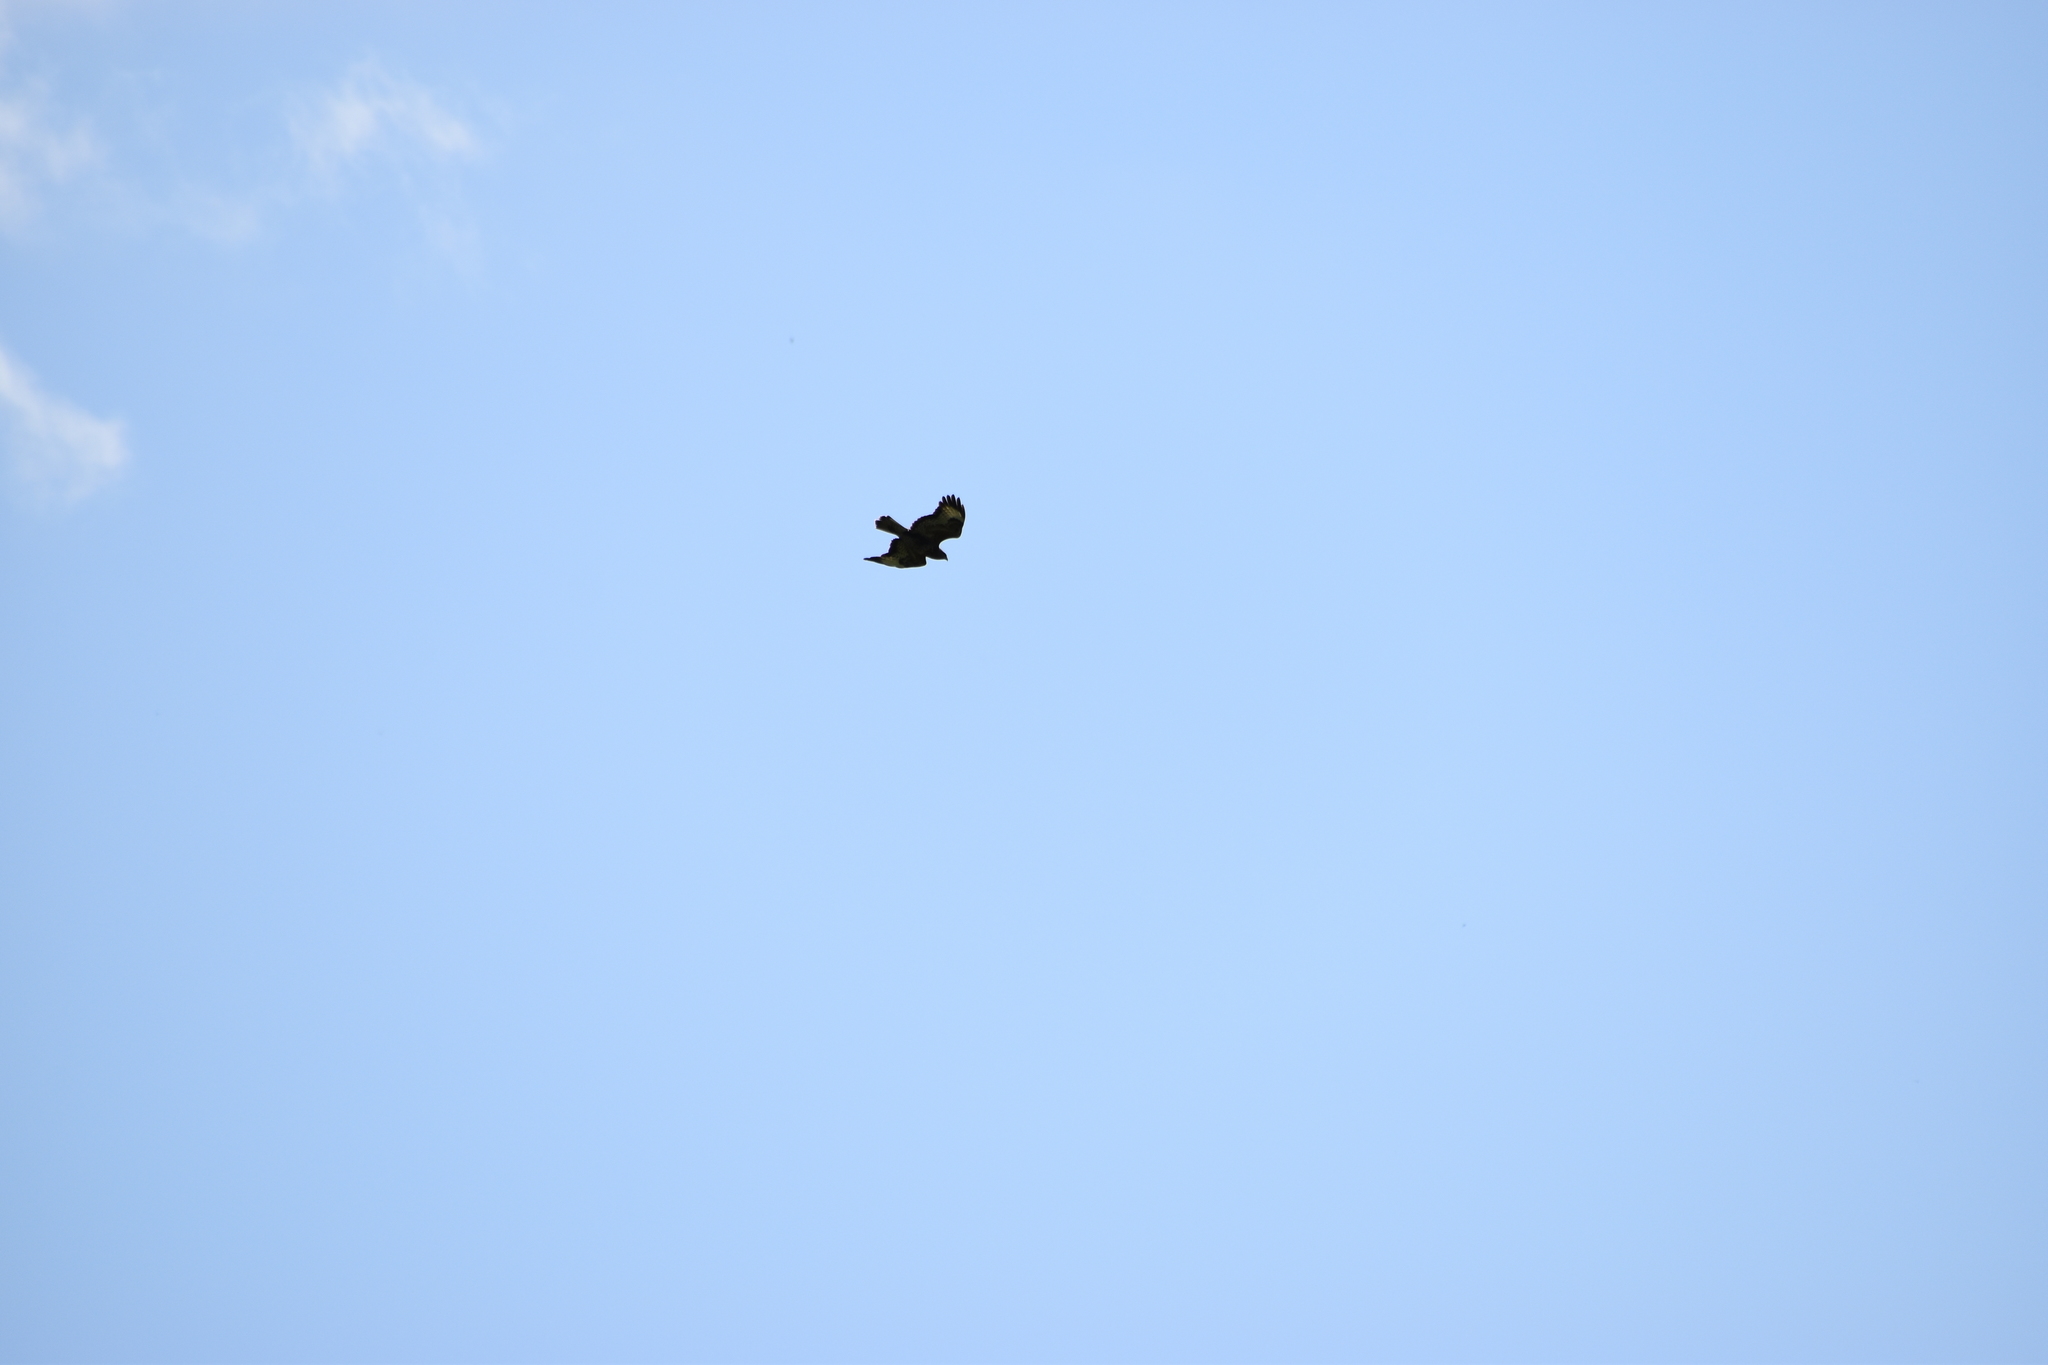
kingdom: Animalia
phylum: Chordata
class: Aves
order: Accipitriformes
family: Accipitridae
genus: Buteo
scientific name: Buteo buteo
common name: Common buzzard
